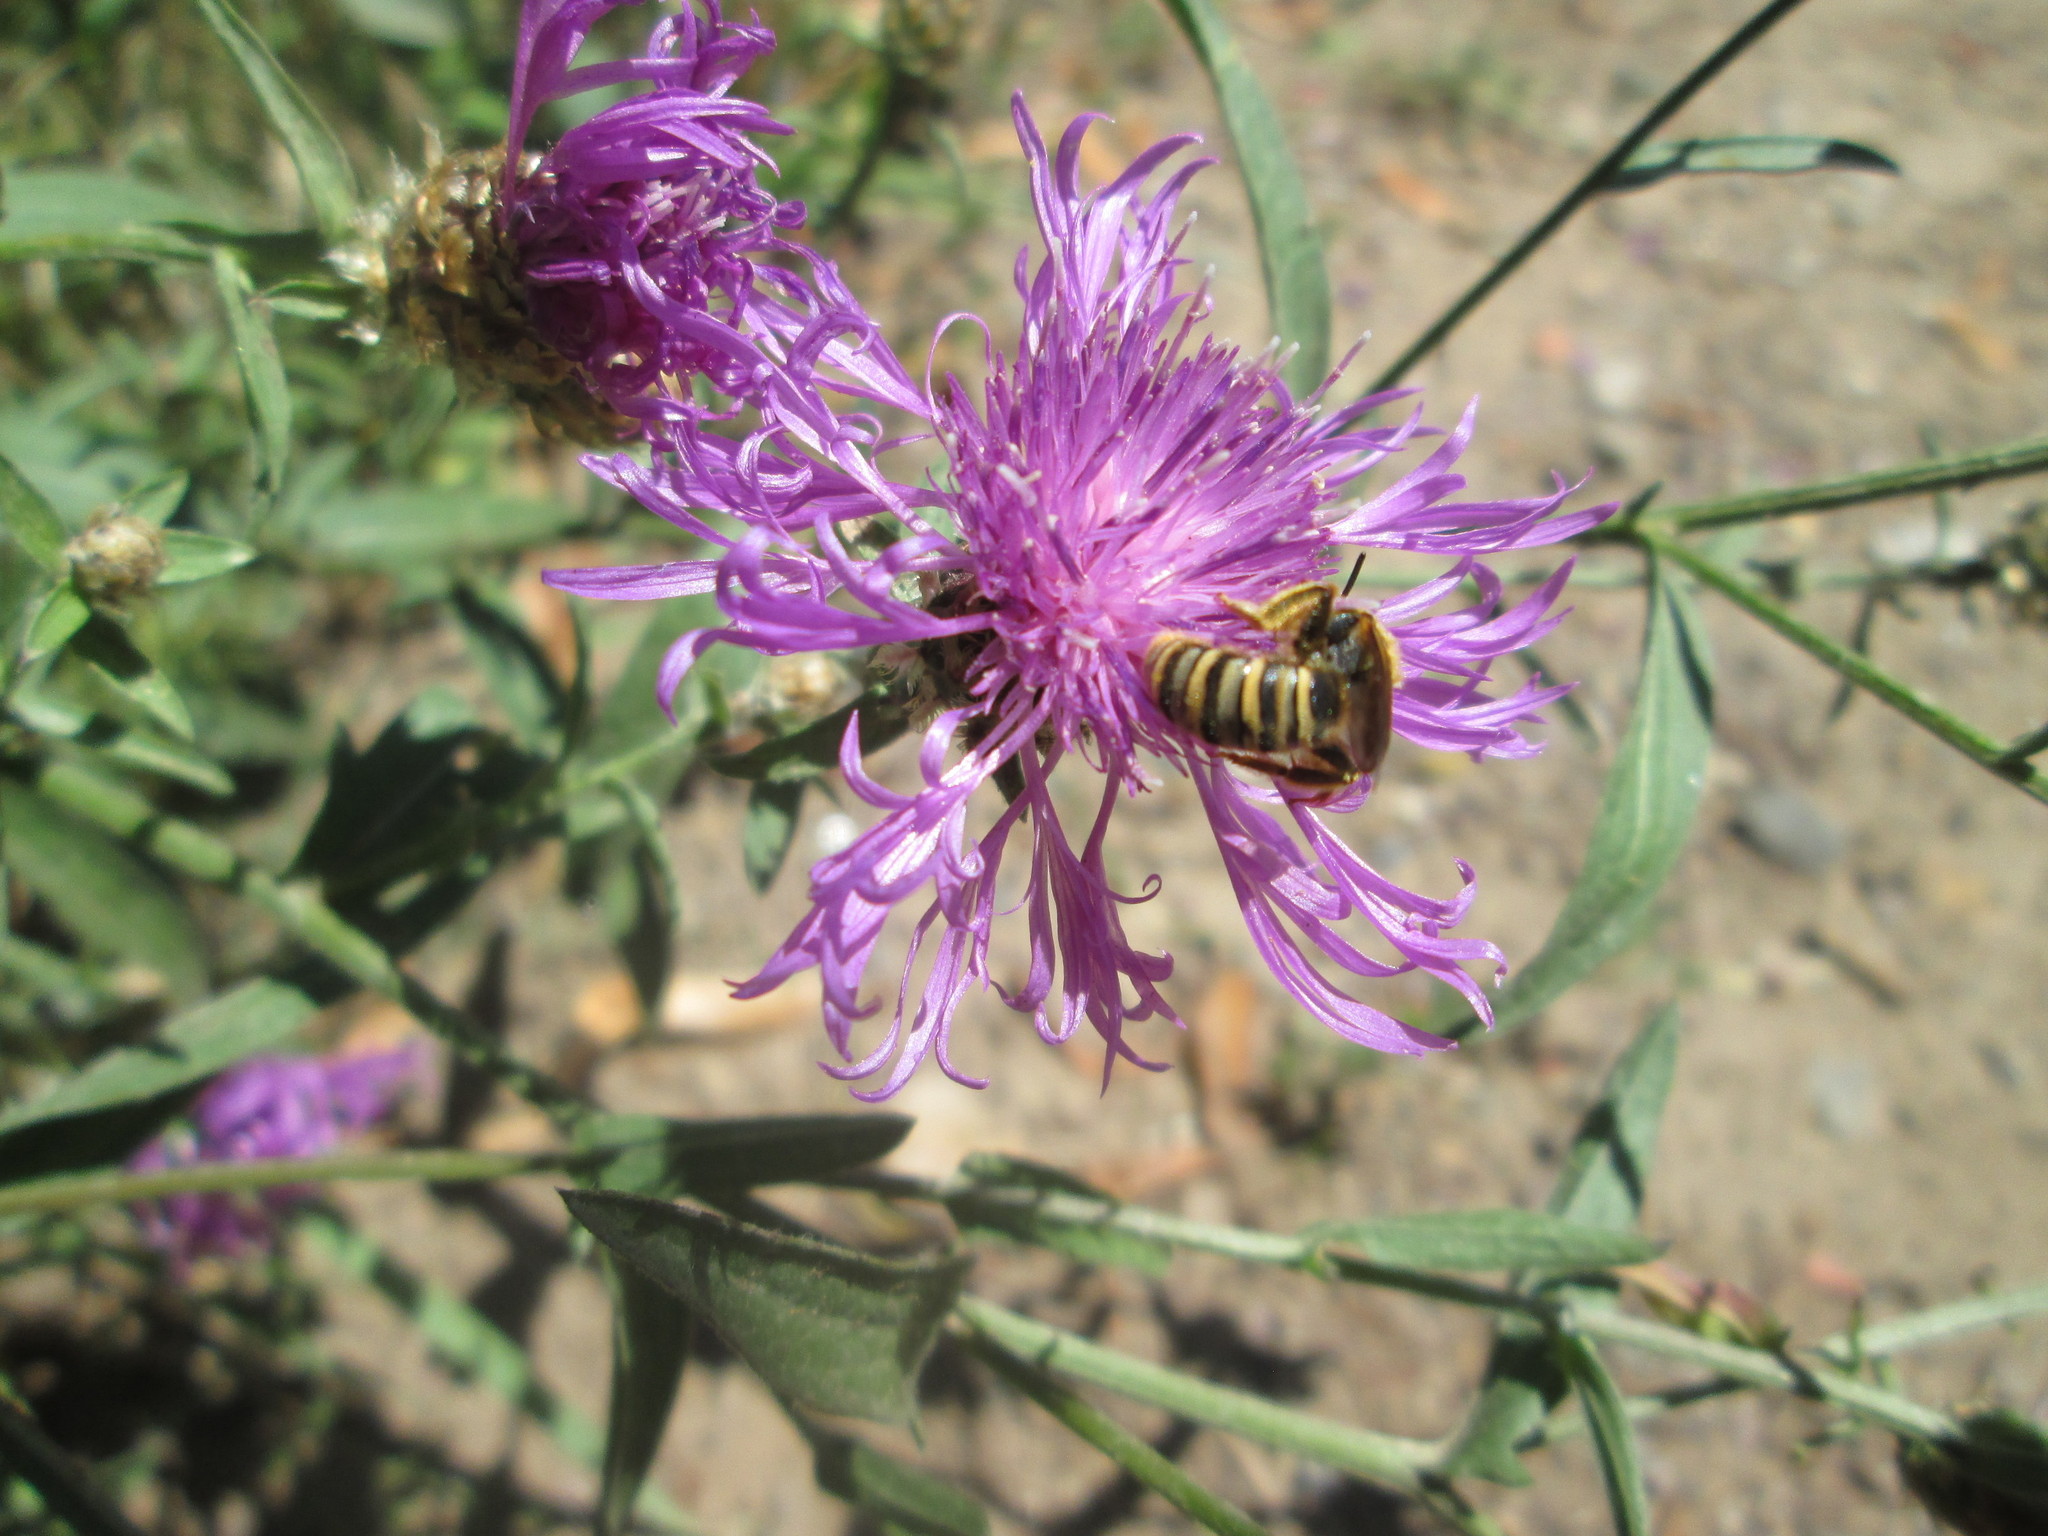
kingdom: Plantae
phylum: Tracheophyta
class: Magnoliopsida
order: Asterales
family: Asteraceae
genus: Centaurea
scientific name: Centaurea jacea
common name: Brown knapweed
